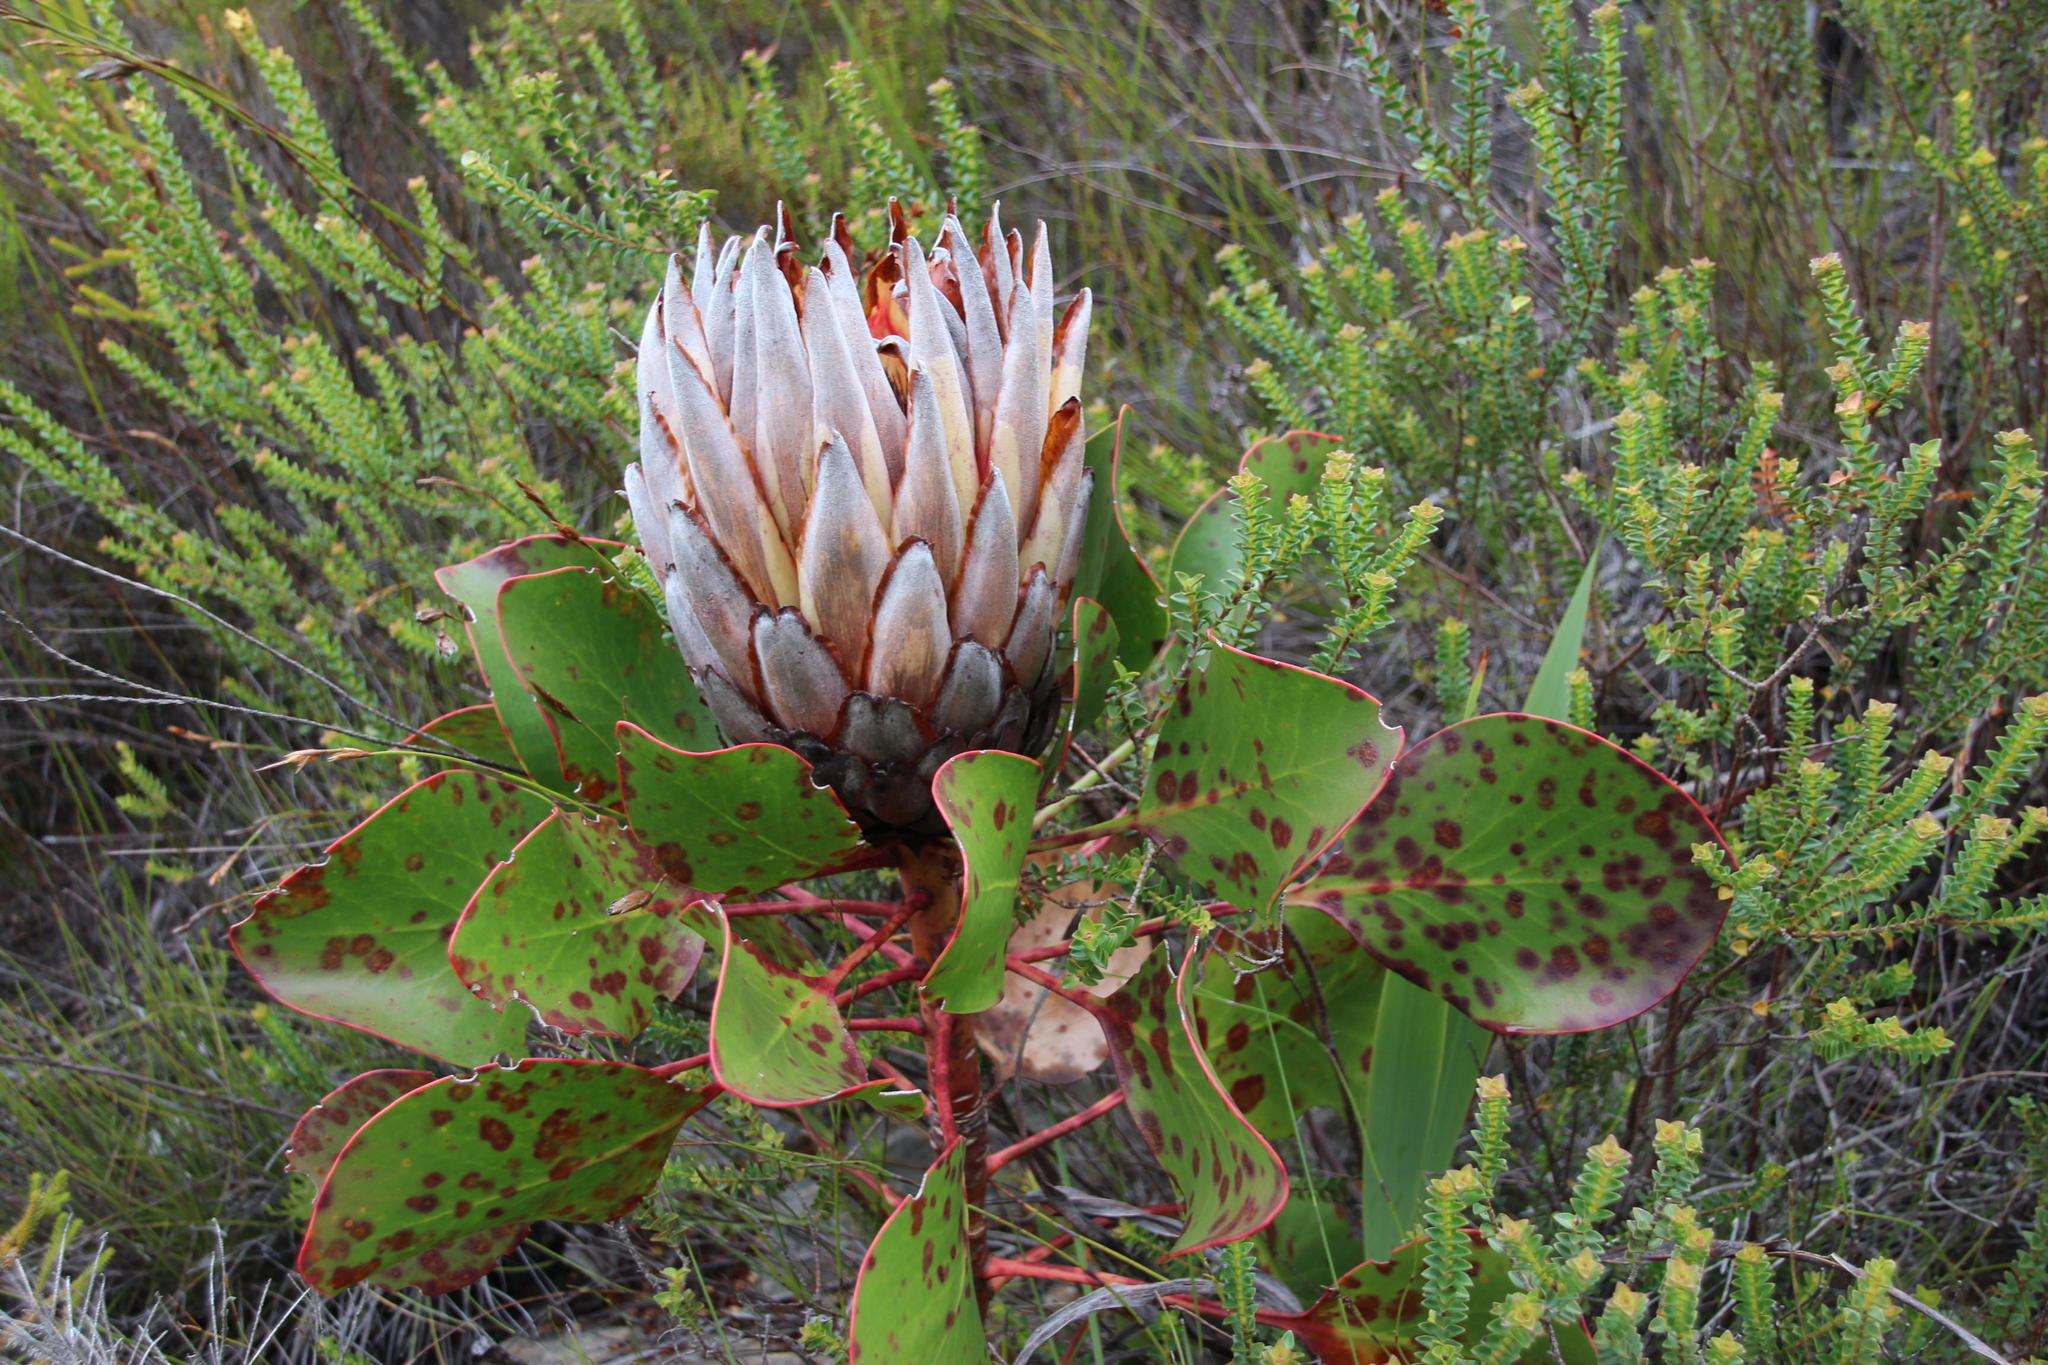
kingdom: Plantae
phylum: Tracheophyta
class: Magnoliopsida
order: Proteales
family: Proteaceae
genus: Protea
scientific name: Protea cynaroides
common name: King protea
